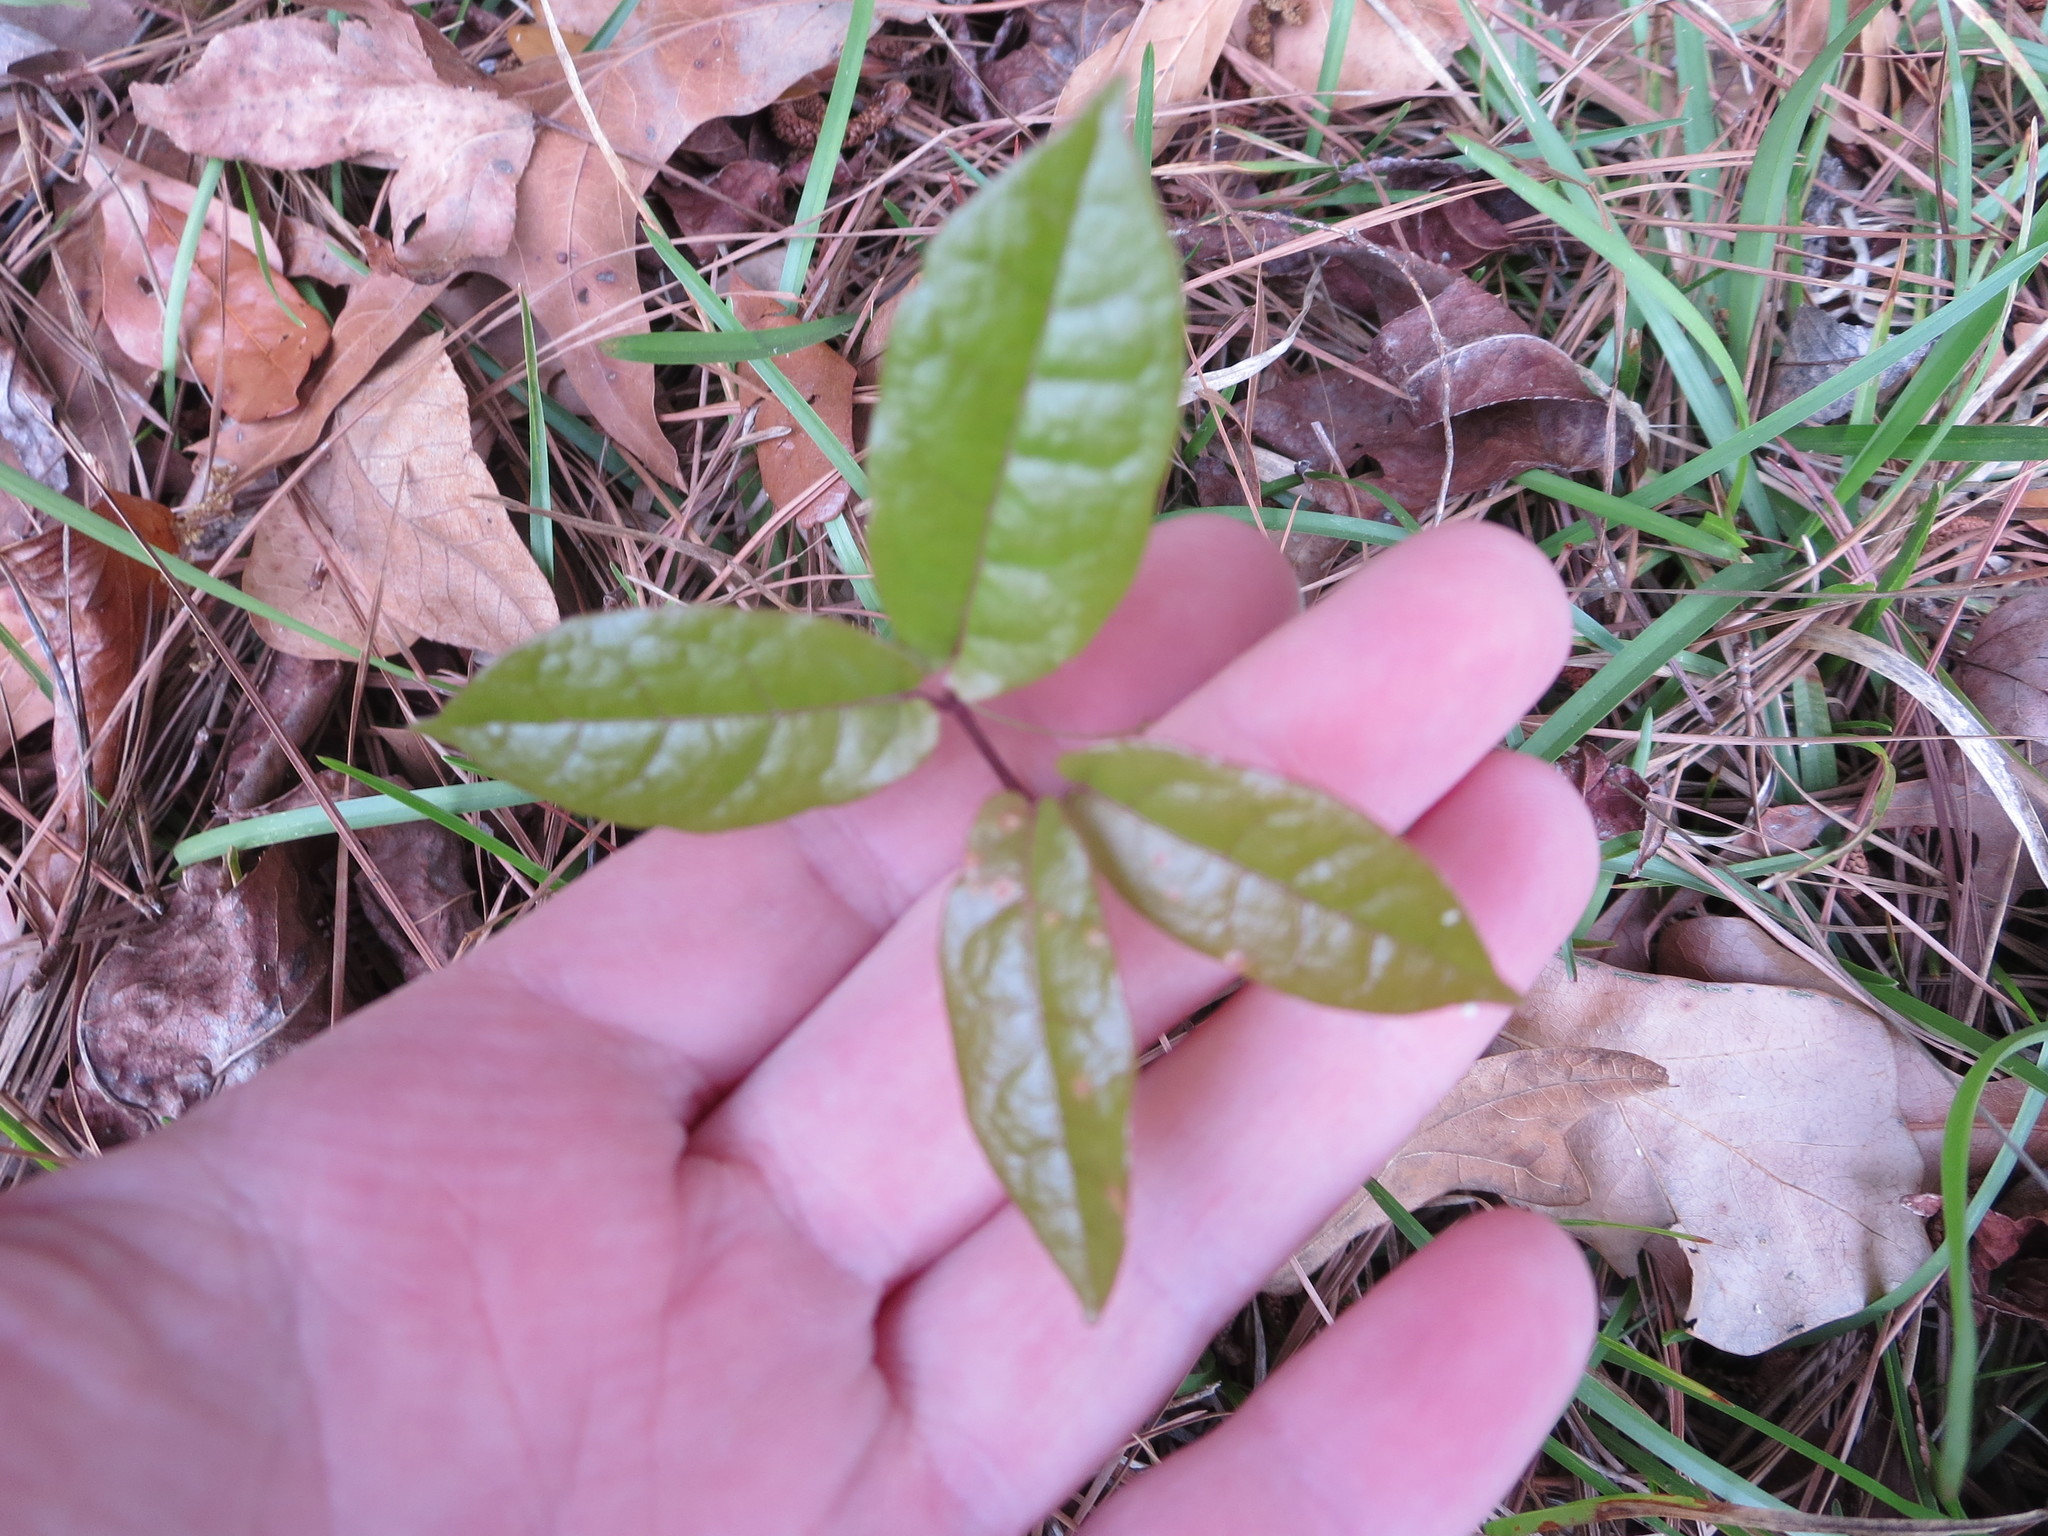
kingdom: Plantae
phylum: Tracheophyta
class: Magnoliopsida
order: Lamiales
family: Bignoniaceae
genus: Bignonia
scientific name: Bignonia capreolata
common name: Crossvine
